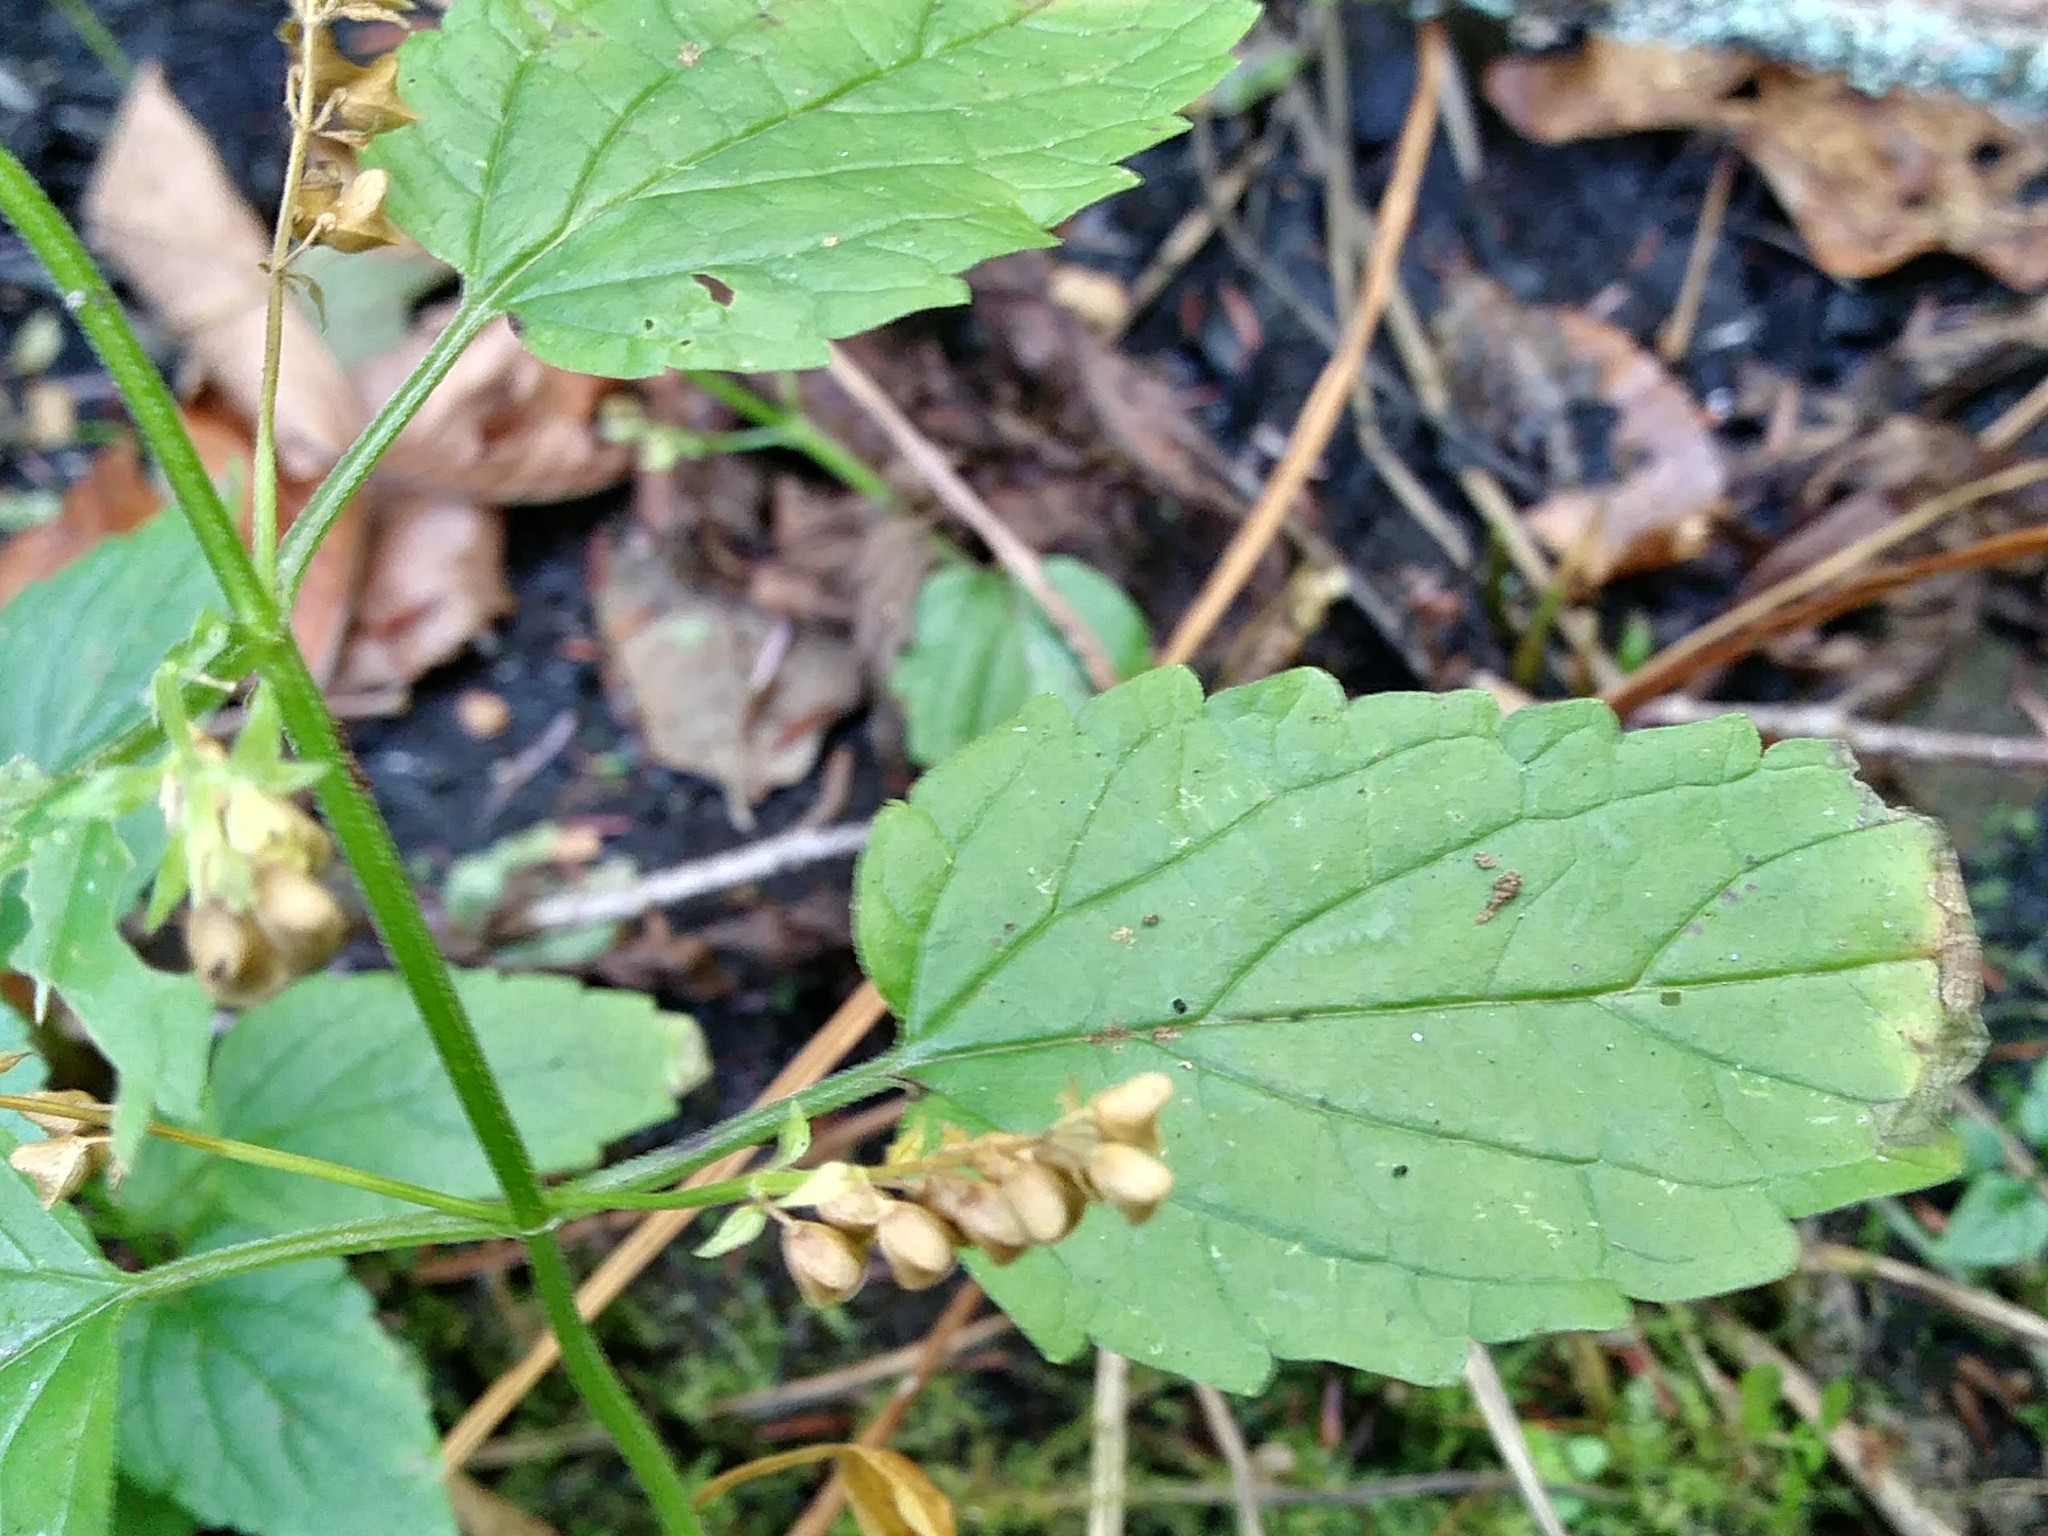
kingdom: Plantae
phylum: Tracheophyta
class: Magnoliopsida
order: Lamiales
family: Lamiaceae
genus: Scutellaria
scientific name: Scutellaria lateriflora
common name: Blue skullcap
